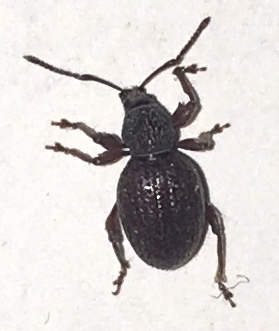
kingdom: Animalia
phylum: Arthropoda
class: Insecta
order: Coleoptera
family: Curculionidae
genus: Otiorhynchus
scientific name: Otiorhynchus ovatus
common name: Strawberry root weevil
